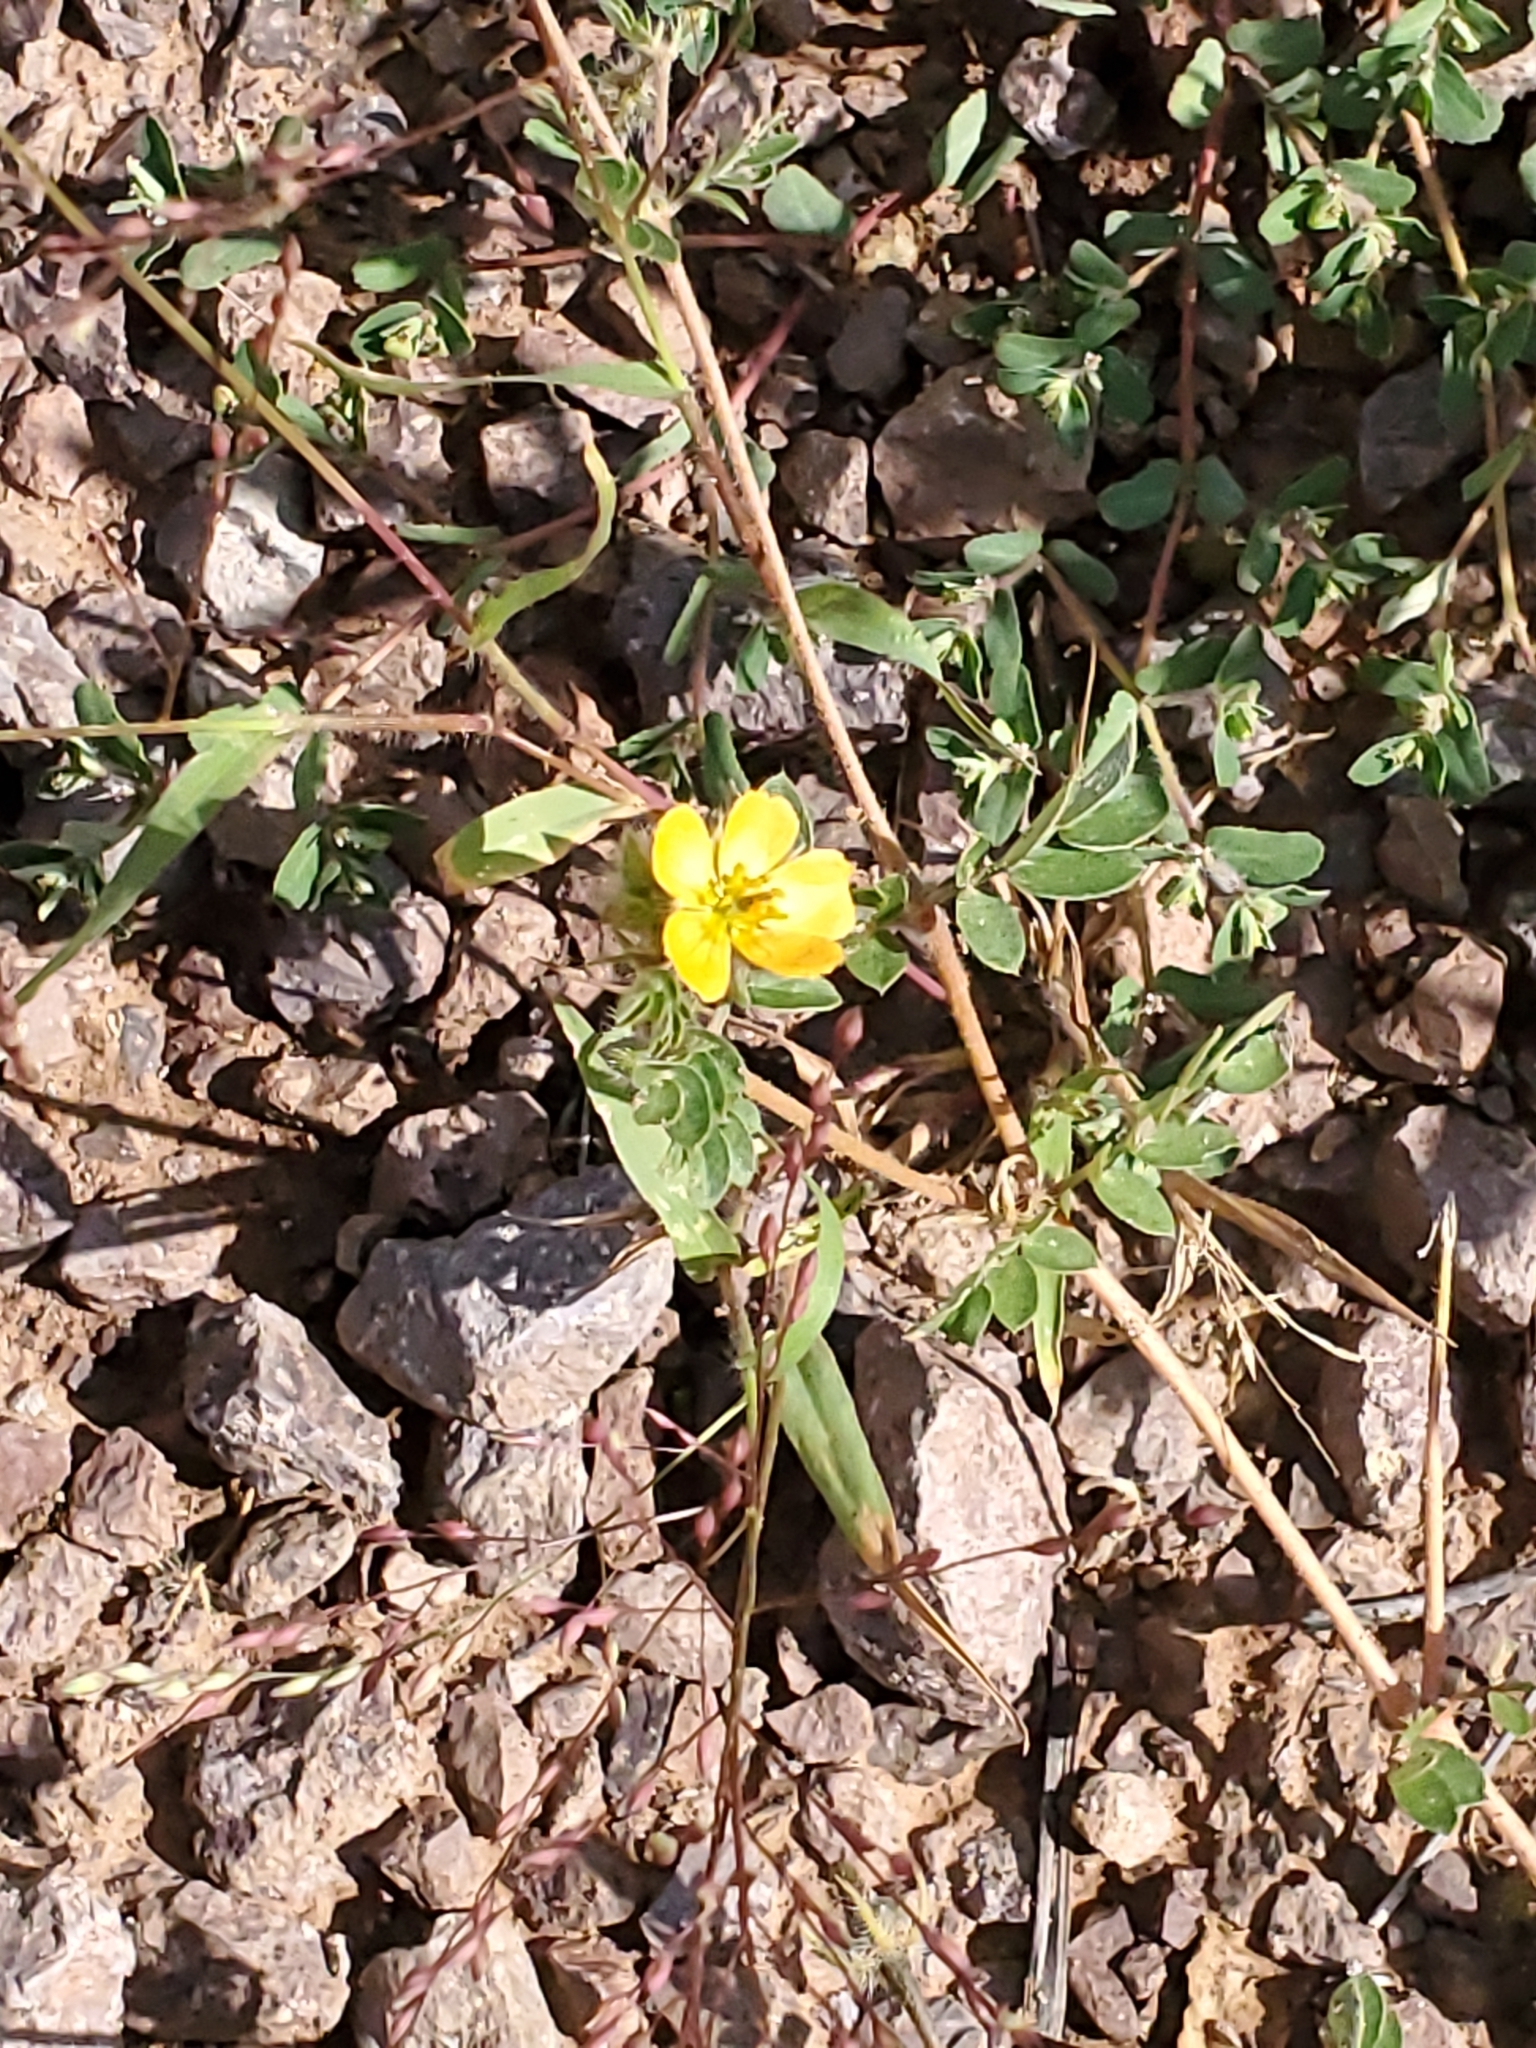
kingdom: Plantae
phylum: Tracheophyta
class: Magnoliopsida
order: Zygophyllales
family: Zygophyllaceae
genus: Kallstroemia
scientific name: Kallstroemia parviflora
